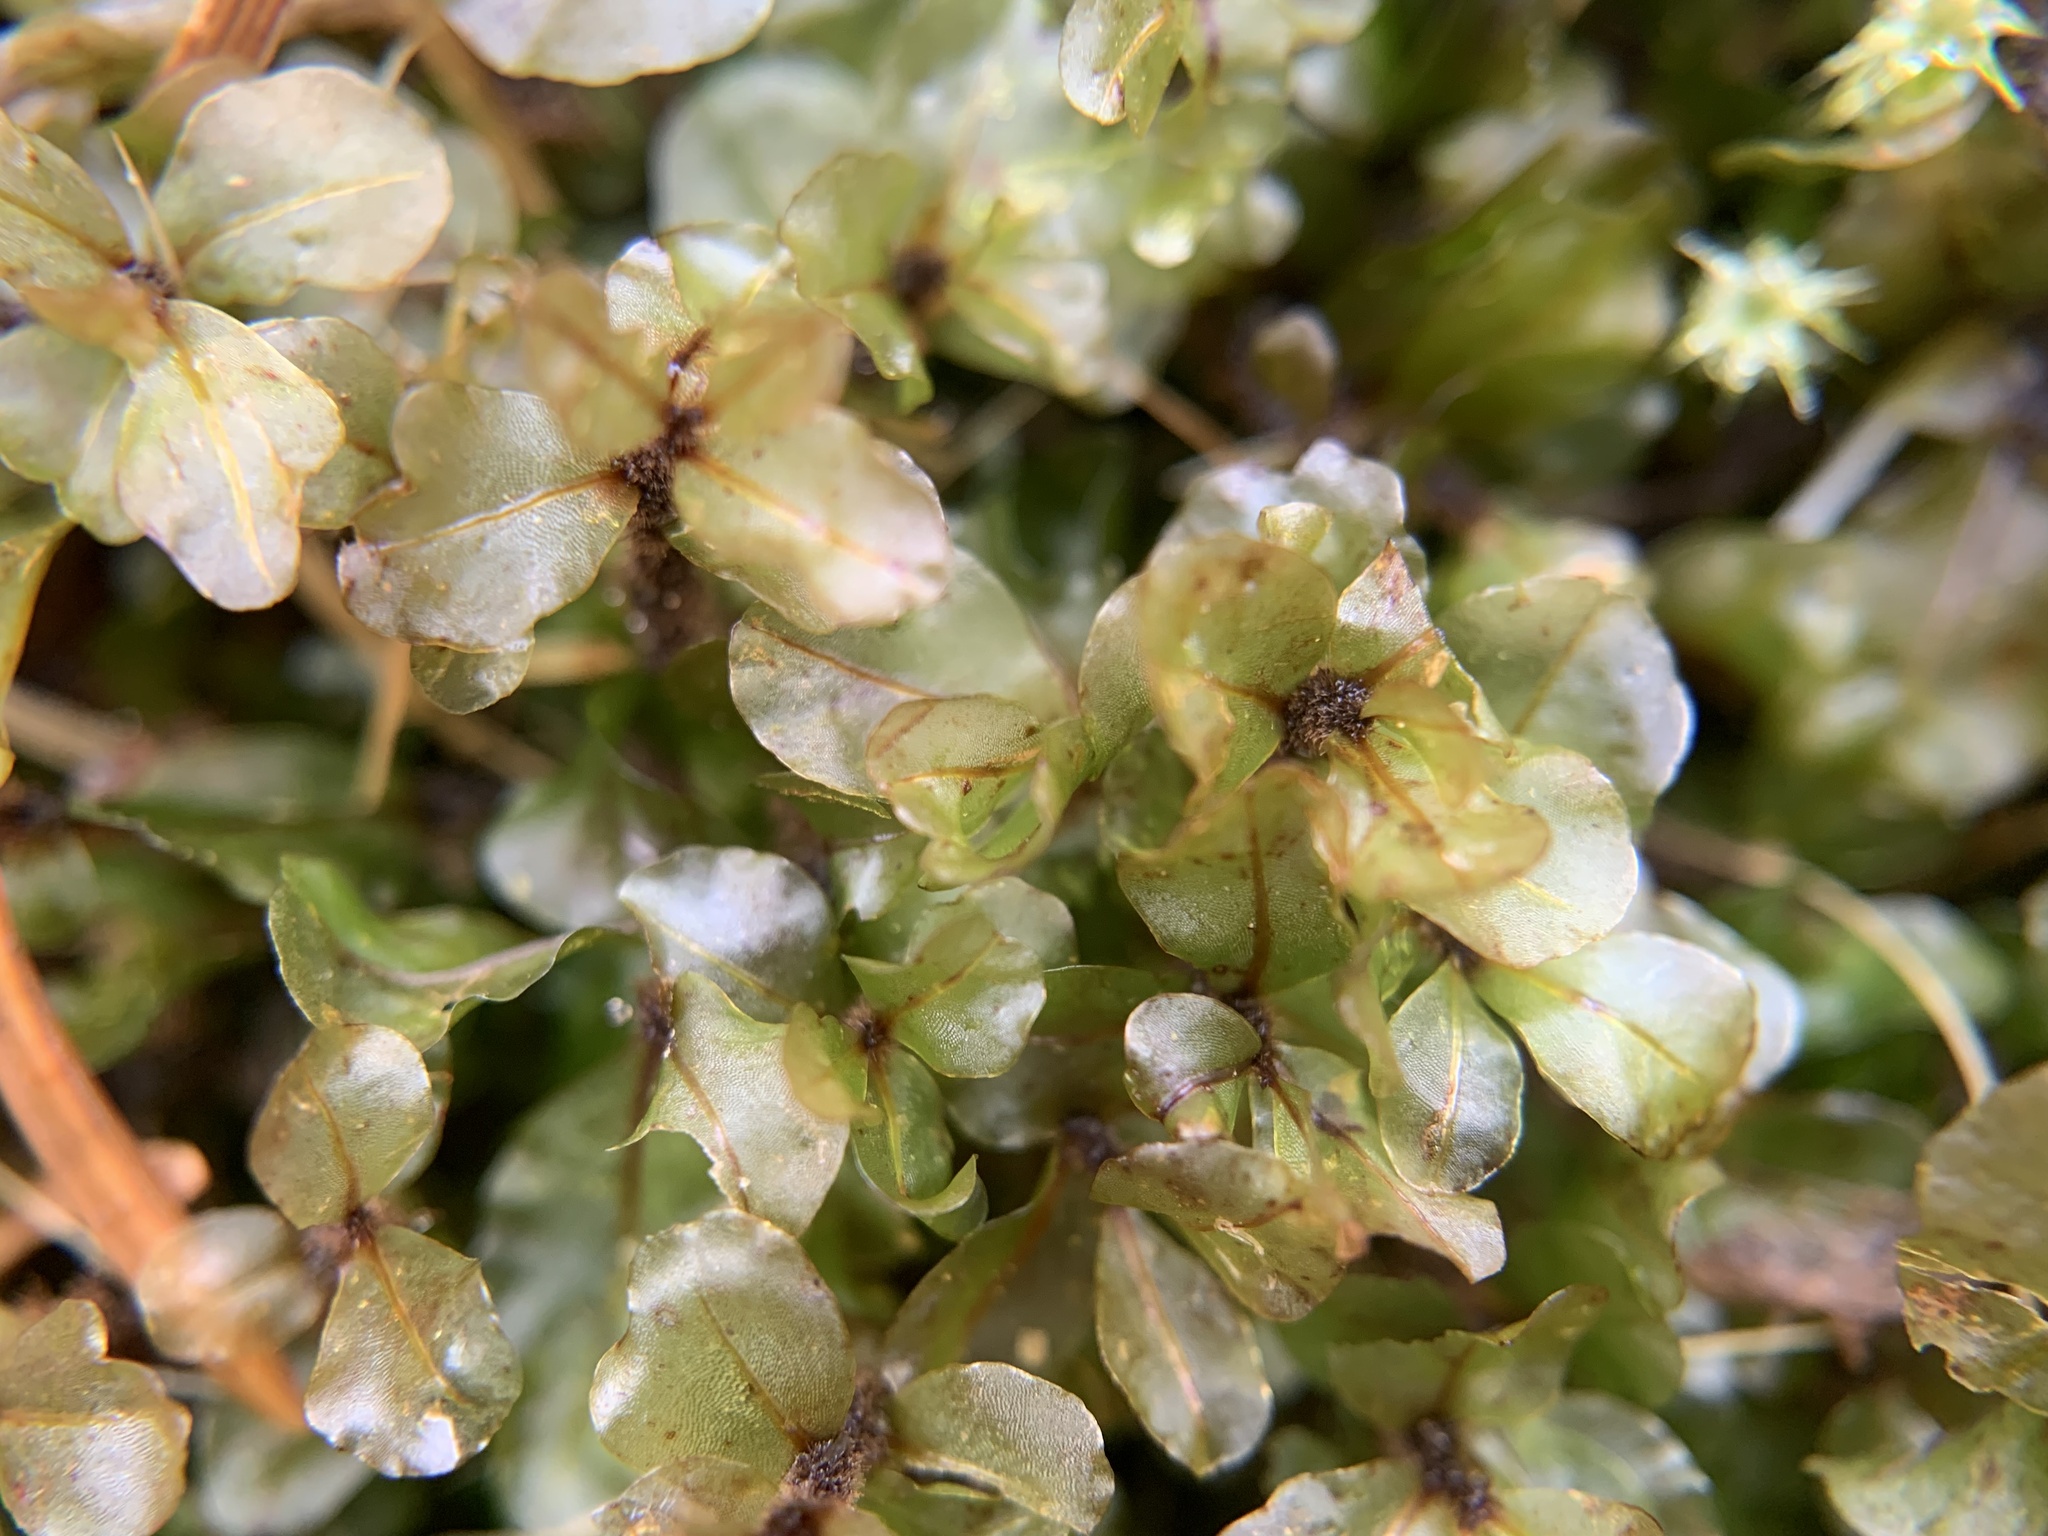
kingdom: Plantae
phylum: Bryophyta
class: Bryopsida
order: Bryales
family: Mniaceae
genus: Rhizomnium
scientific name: Rhizomnium magnifolium
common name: Large-leaved leafy moss
